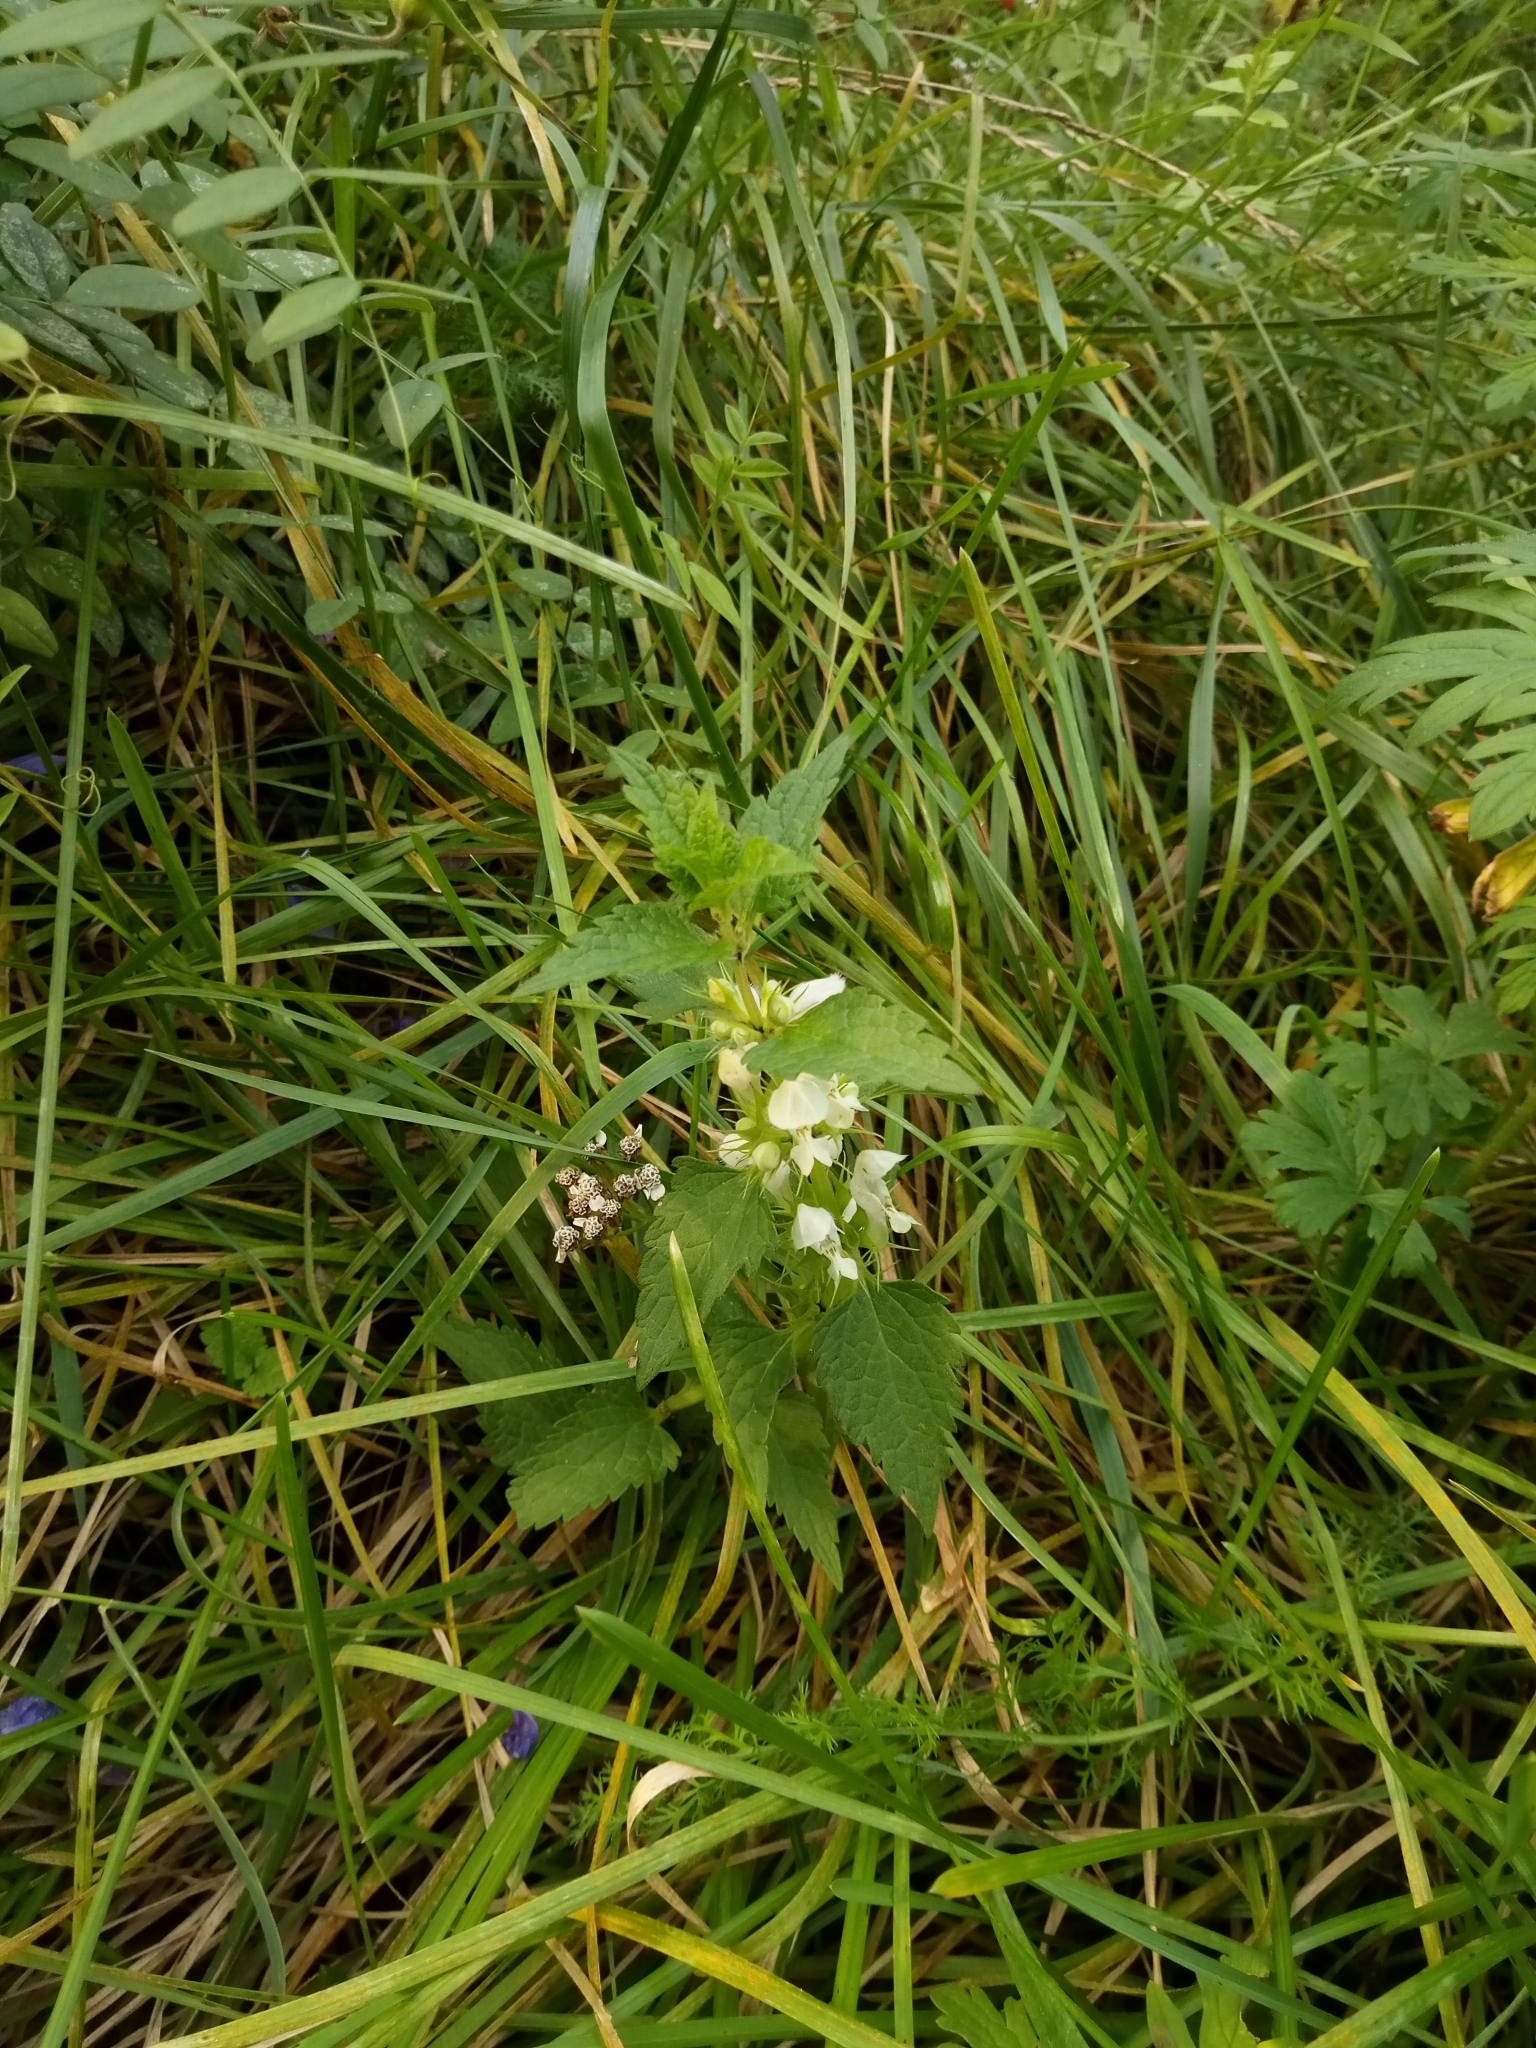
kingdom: Plantae
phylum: Tracheophyta
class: Magnoliopsida
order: Lamiales
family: Lamiaceae
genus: Lamium
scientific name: Lamium album
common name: White dead-nettle
